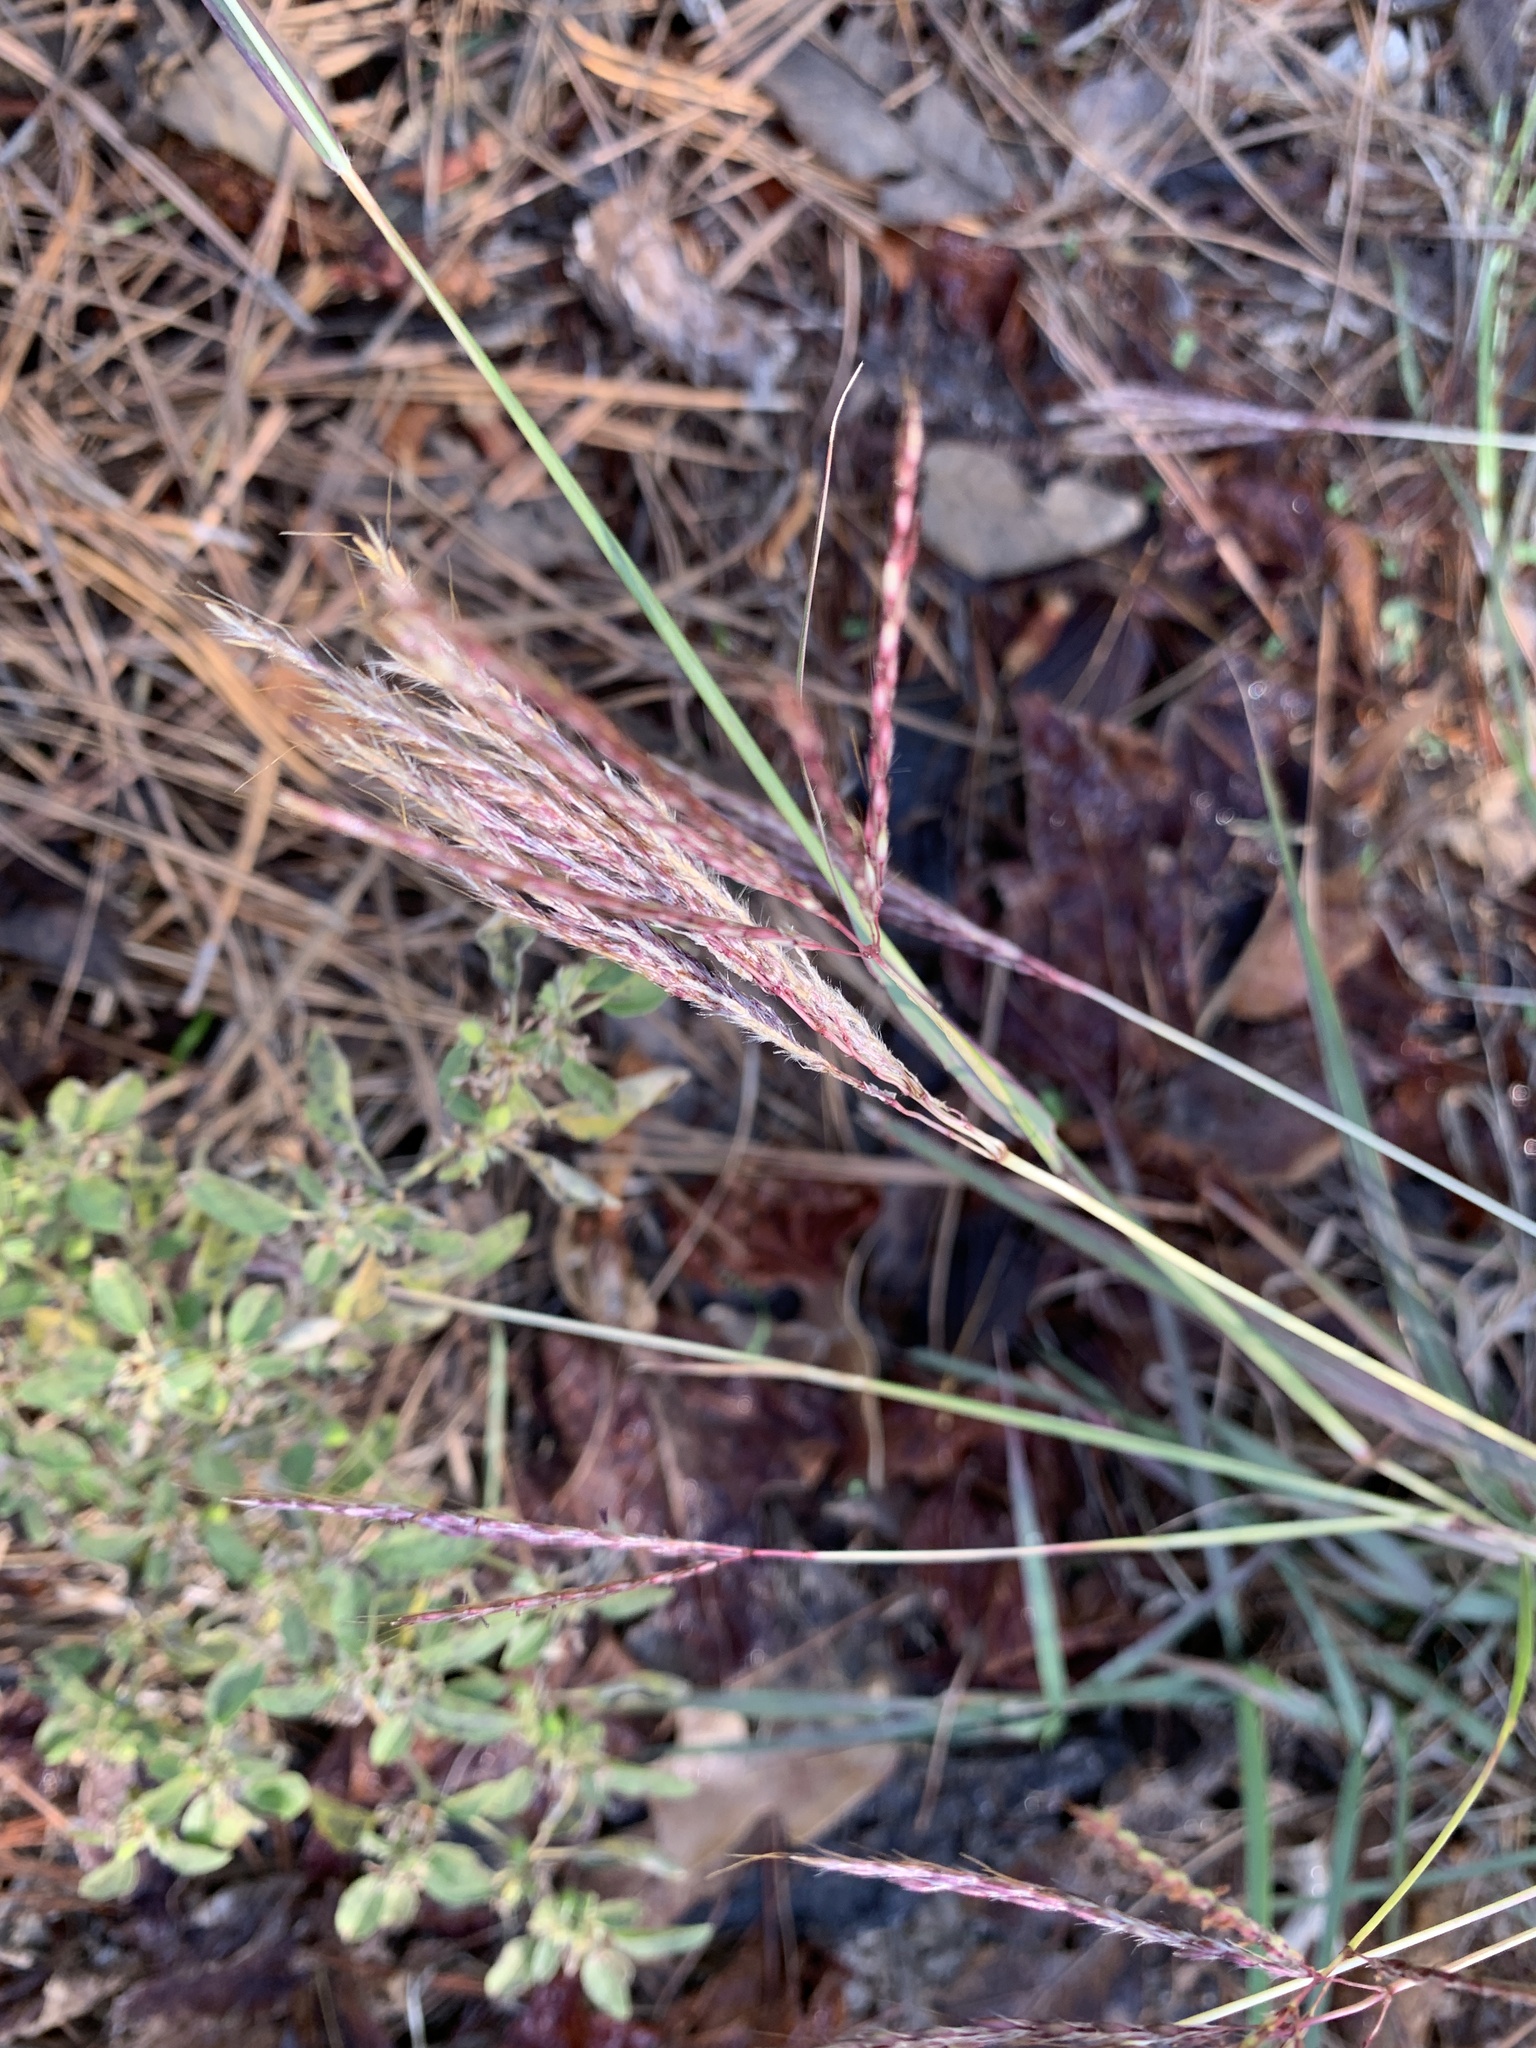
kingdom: Plantae
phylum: Tracheophyta
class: Liliopsida
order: Poales
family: Poaceae
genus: Bothriochloa
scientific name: Bothriochloa ischaemum
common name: Yellow bluestem
